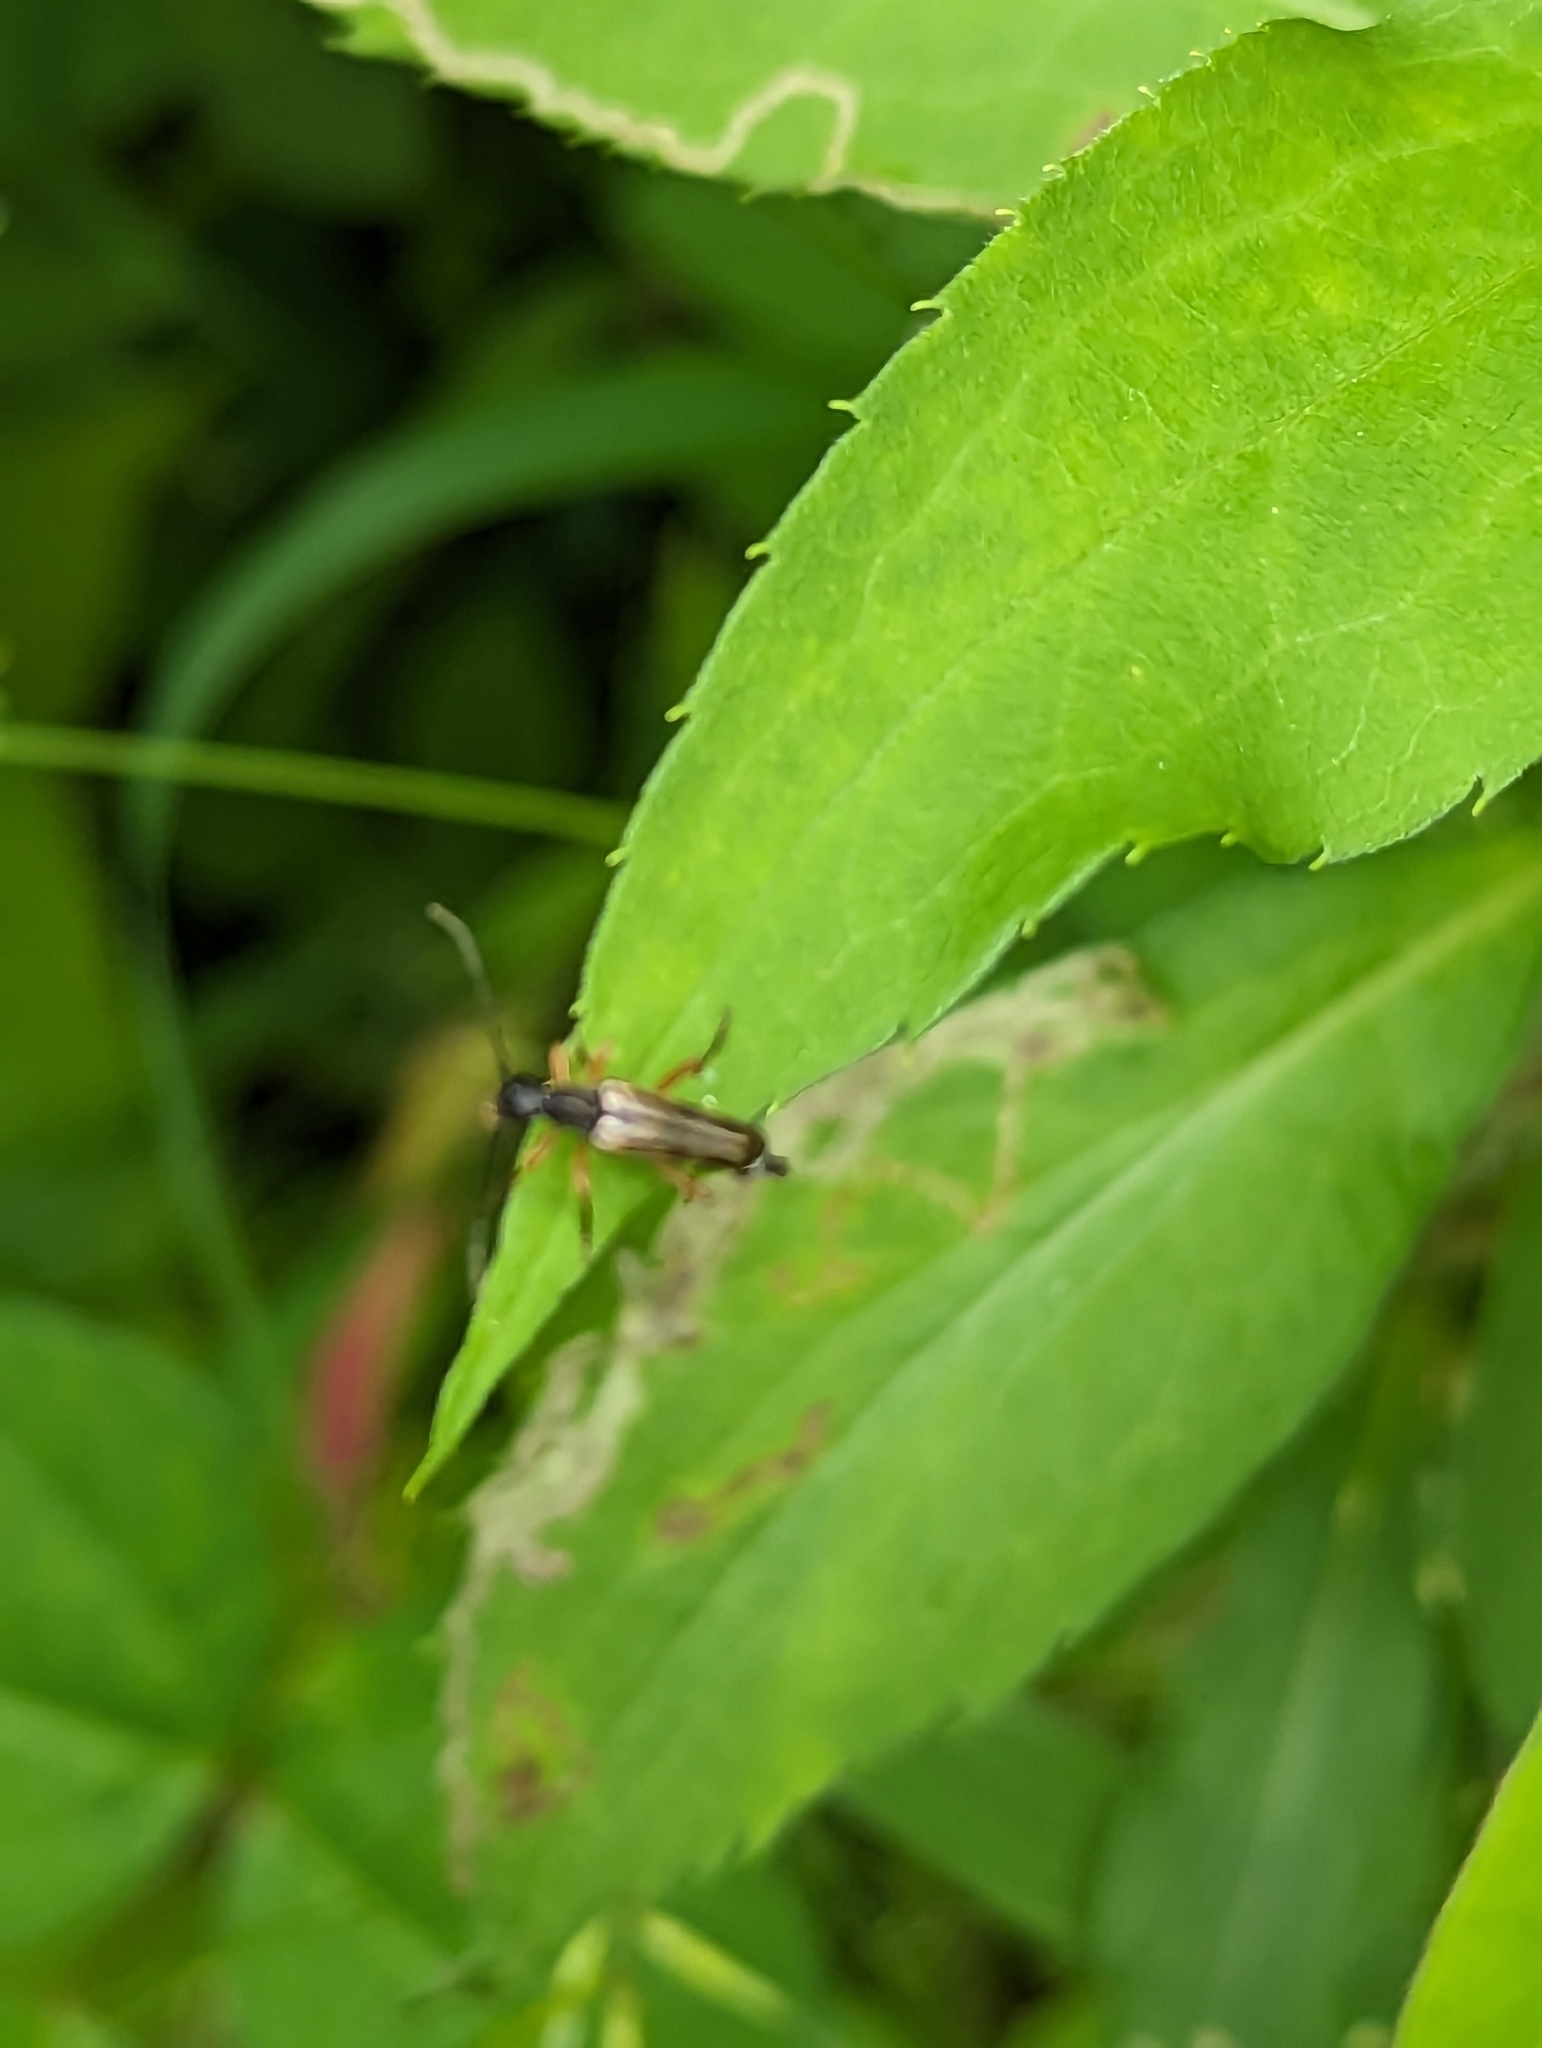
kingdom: Animalia
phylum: Arthropoda
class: Insecta
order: Coleoptera
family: Cerambycidae
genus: Analeptura
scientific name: Analeptura lineola
